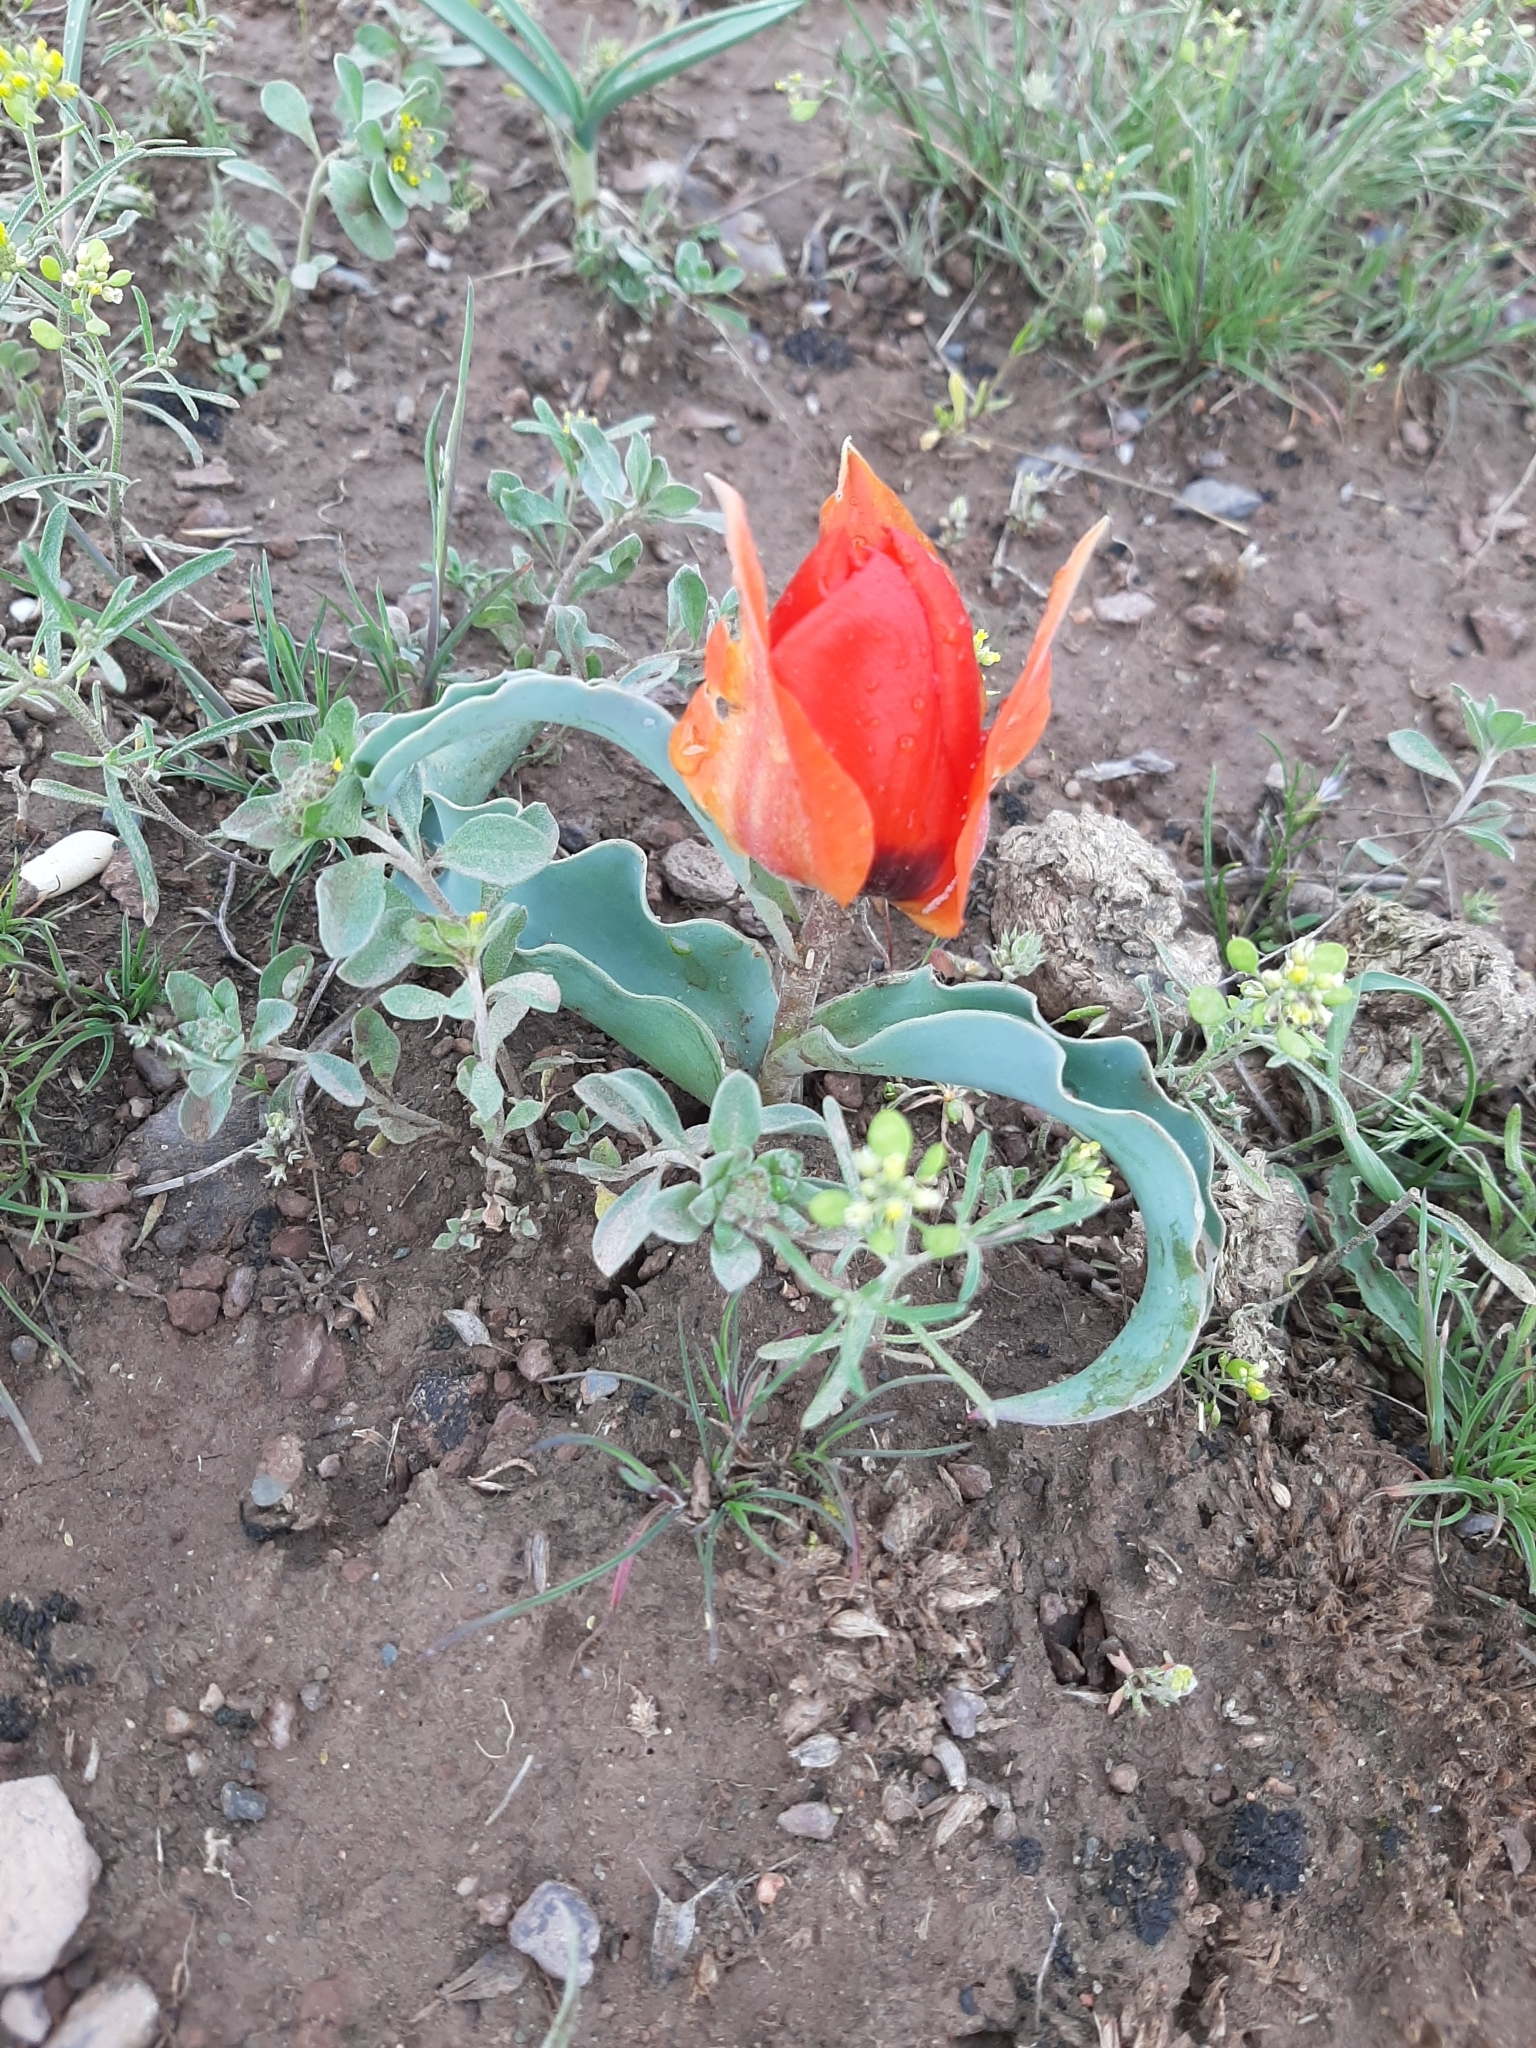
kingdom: Plantae
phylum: Tracheophyta
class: Liliopsida
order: Liliales
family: Liliaceae
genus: Tulipa
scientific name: Tulipa alberti
